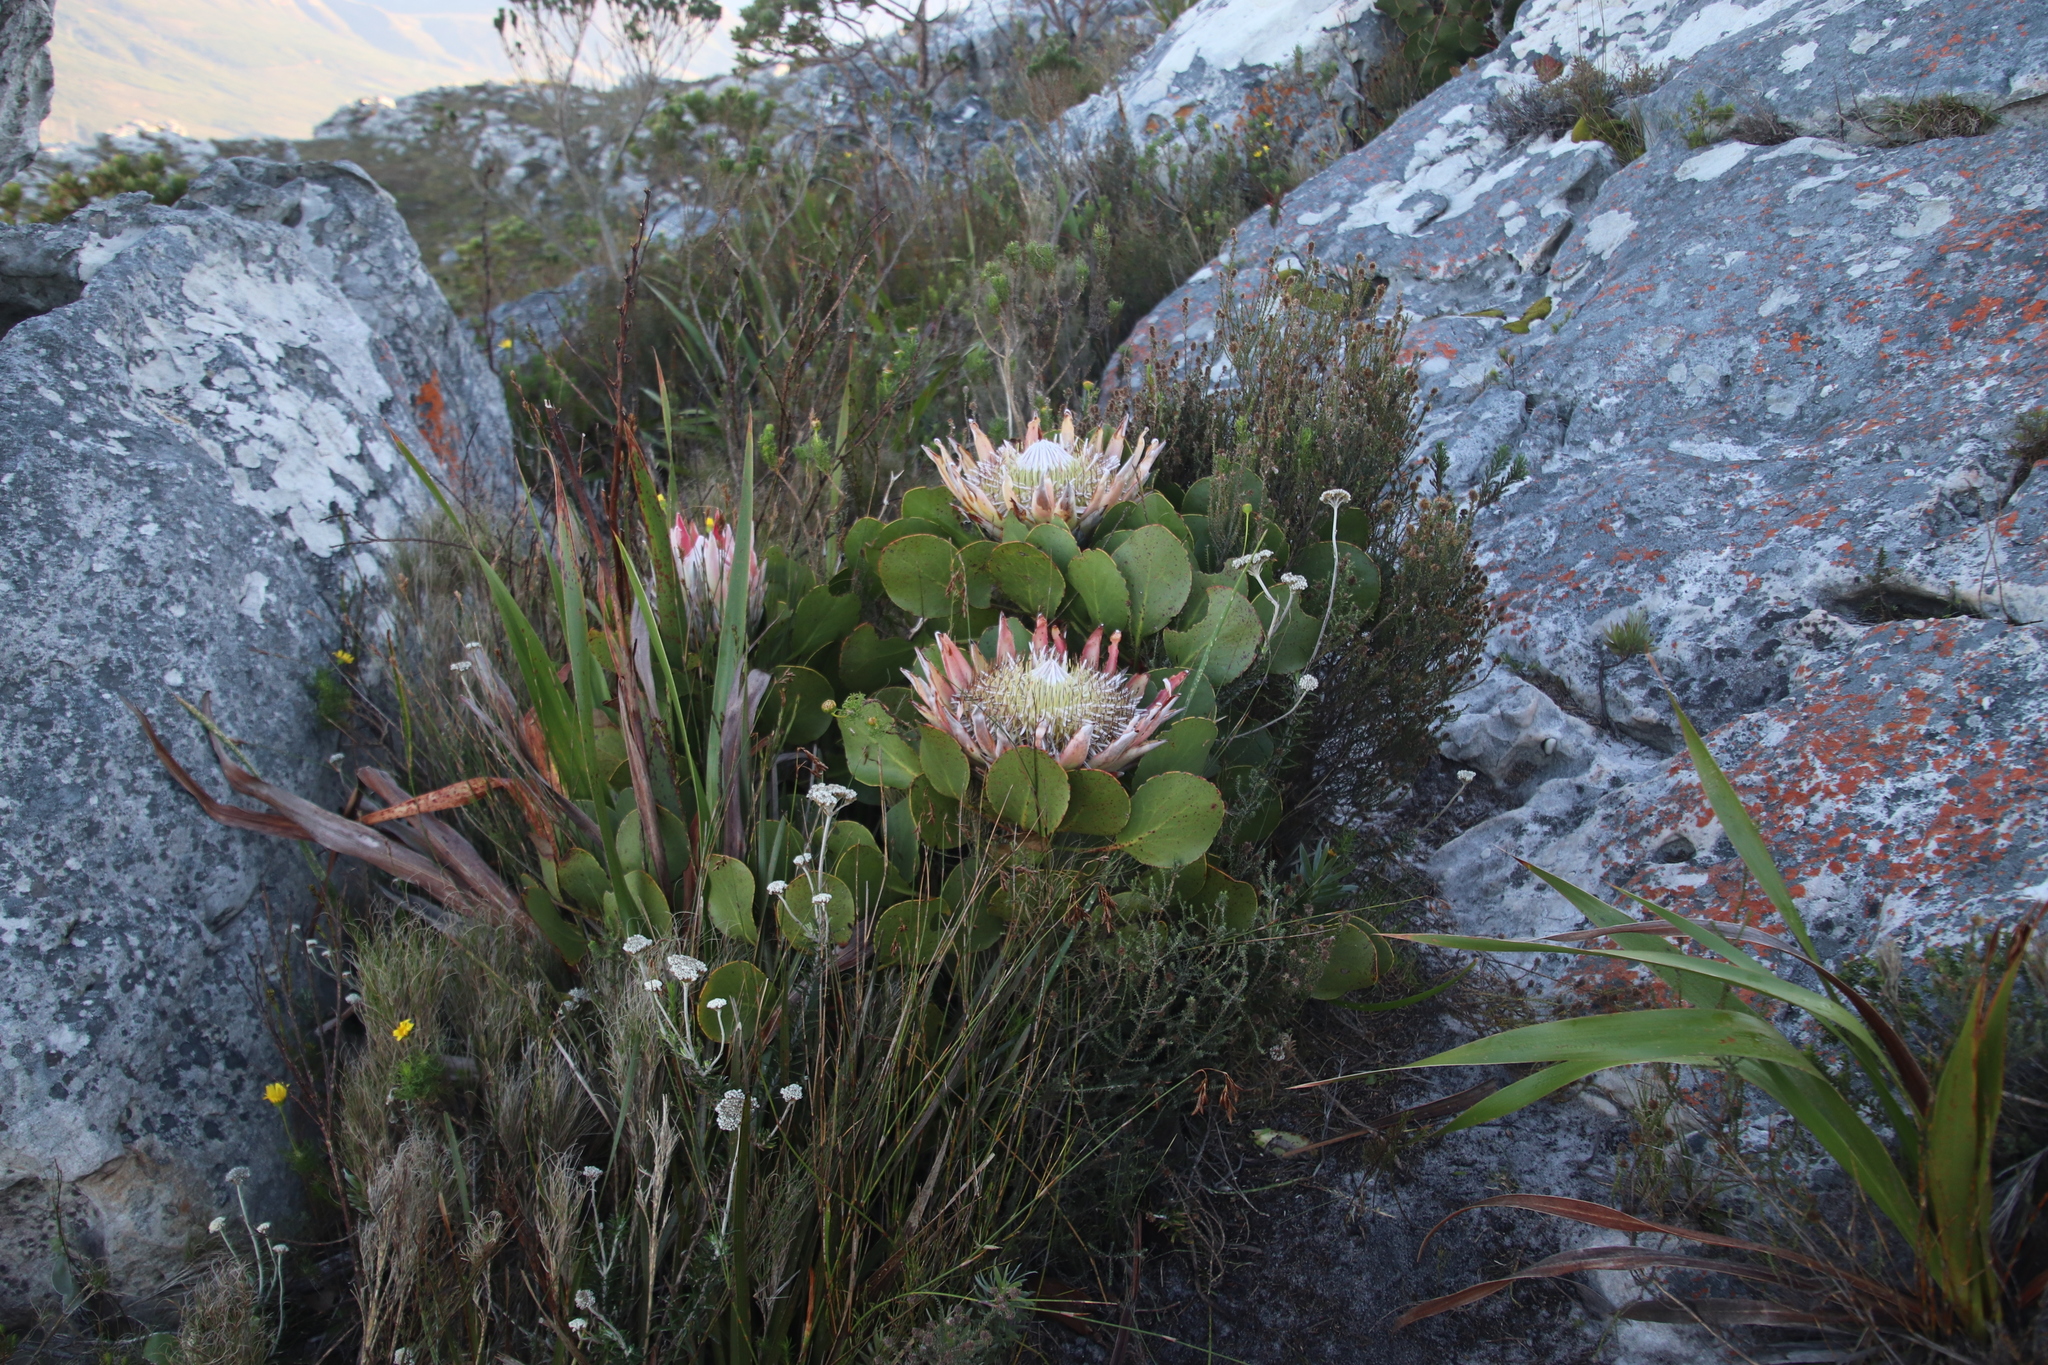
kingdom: Plantae
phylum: Tracheophyta
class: Magnoliopsida
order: Proteales
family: Proteaceae
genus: Protea
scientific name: Protea cynaroides
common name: King protea
